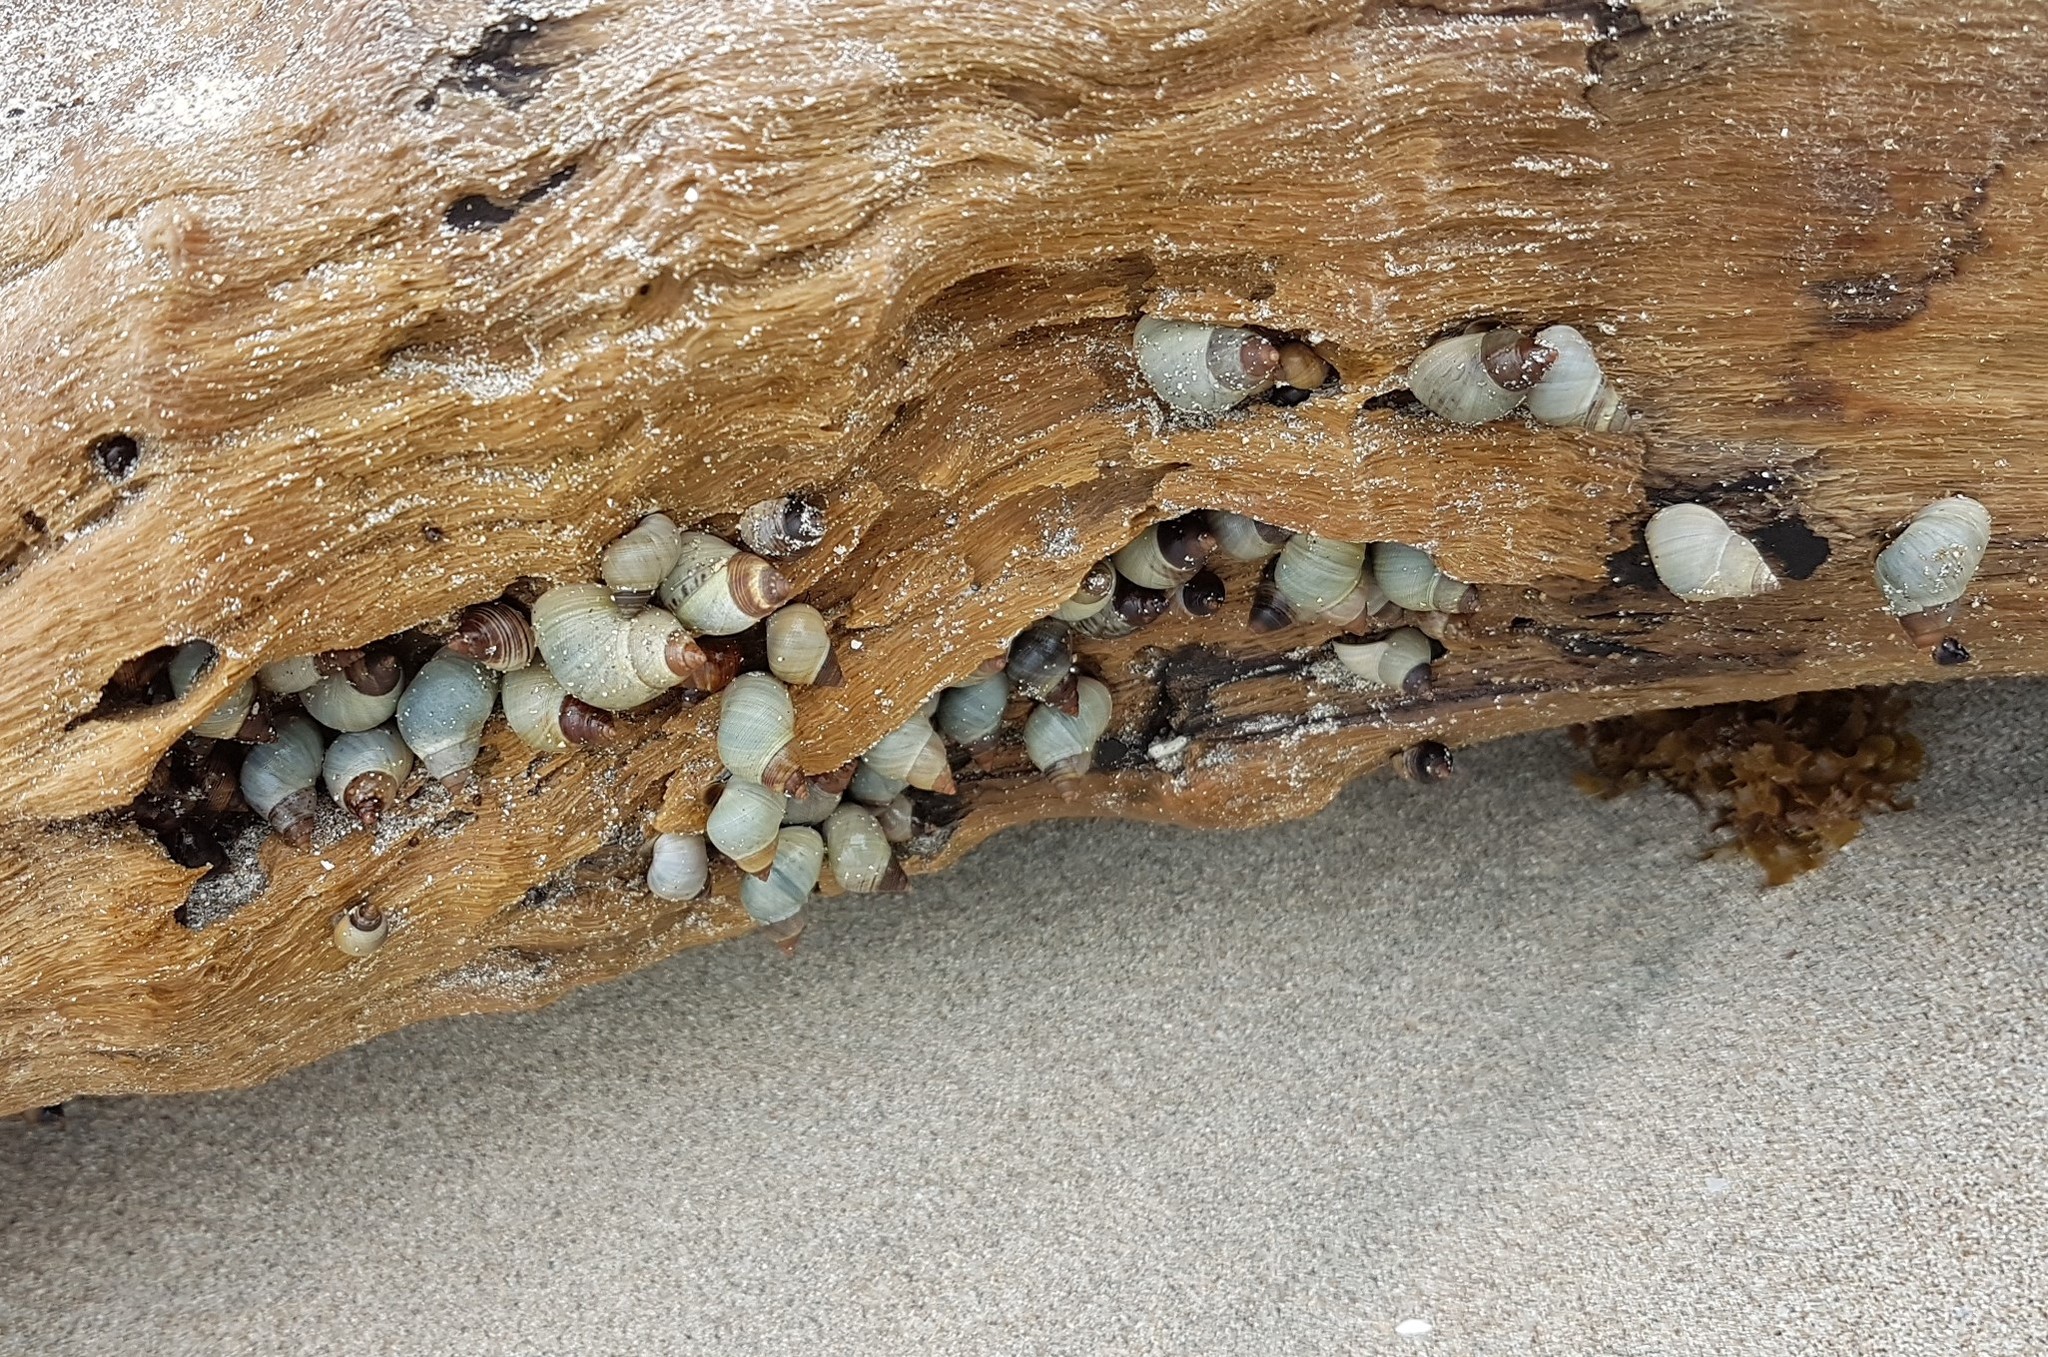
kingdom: Animalia
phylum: Mollusca
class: Gastropoda
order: Littorinimorpha
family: Littorinidae
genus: Littoraria
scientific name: Littoraria nebulosa
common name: Cloudy periwinkle
